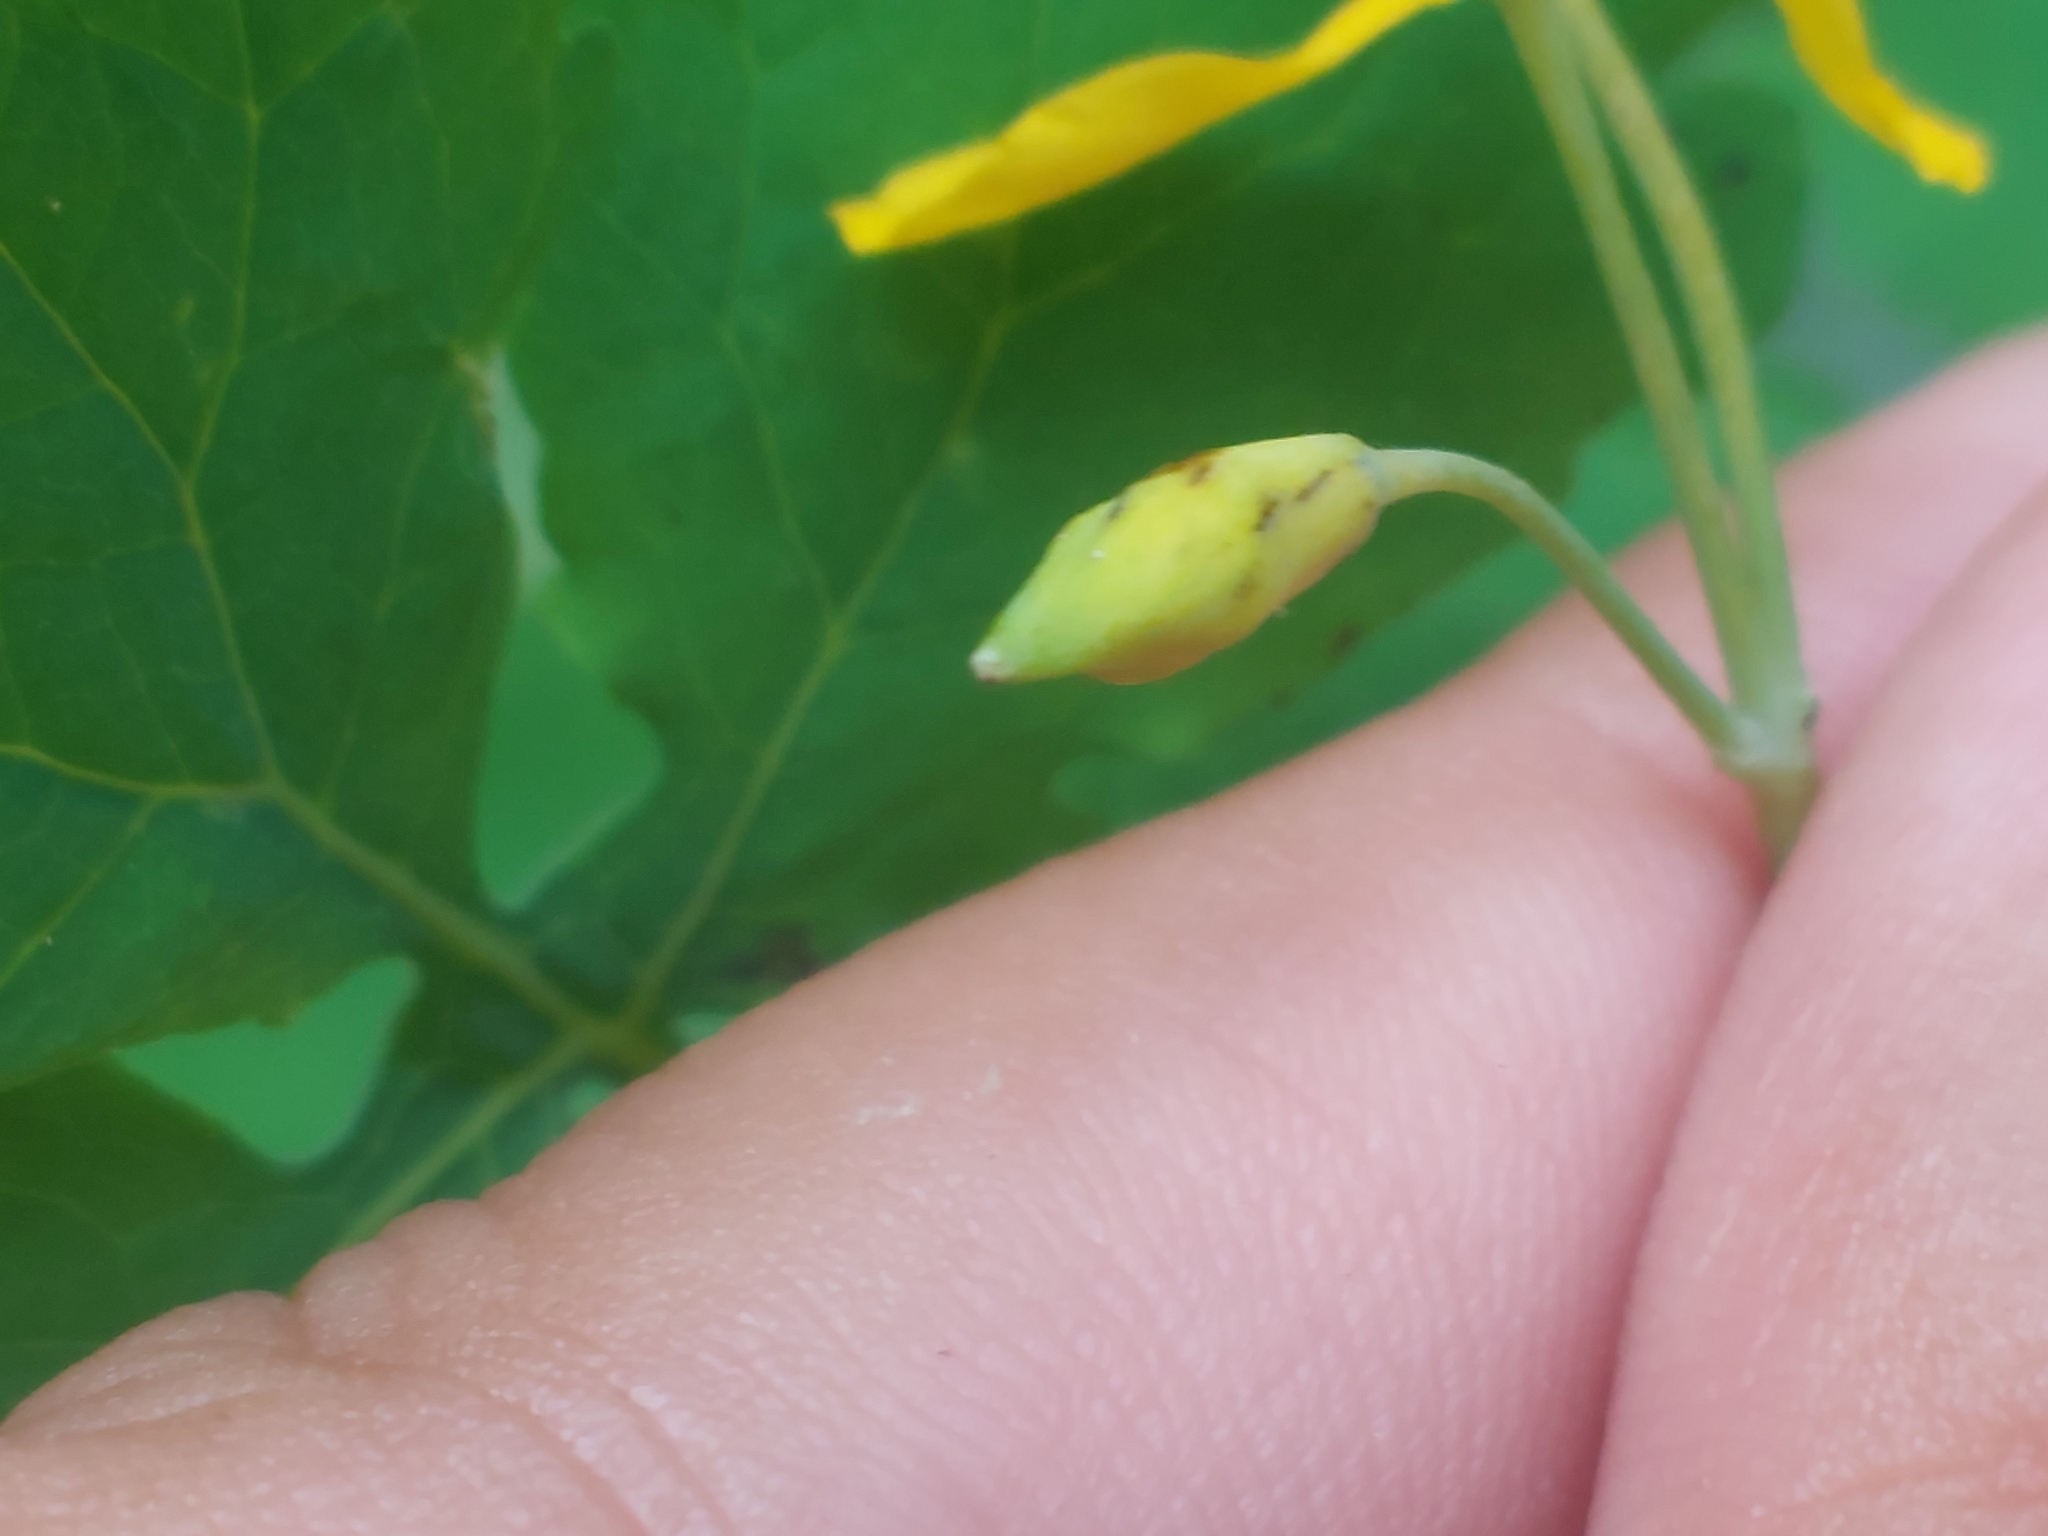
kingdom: Plantae
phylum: Tracheophyta
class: Magnoliopsida
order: Ranunculales
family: Papaveraceae
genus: Chelidonium
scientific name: Chelidonium majus
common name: Greater celandine
